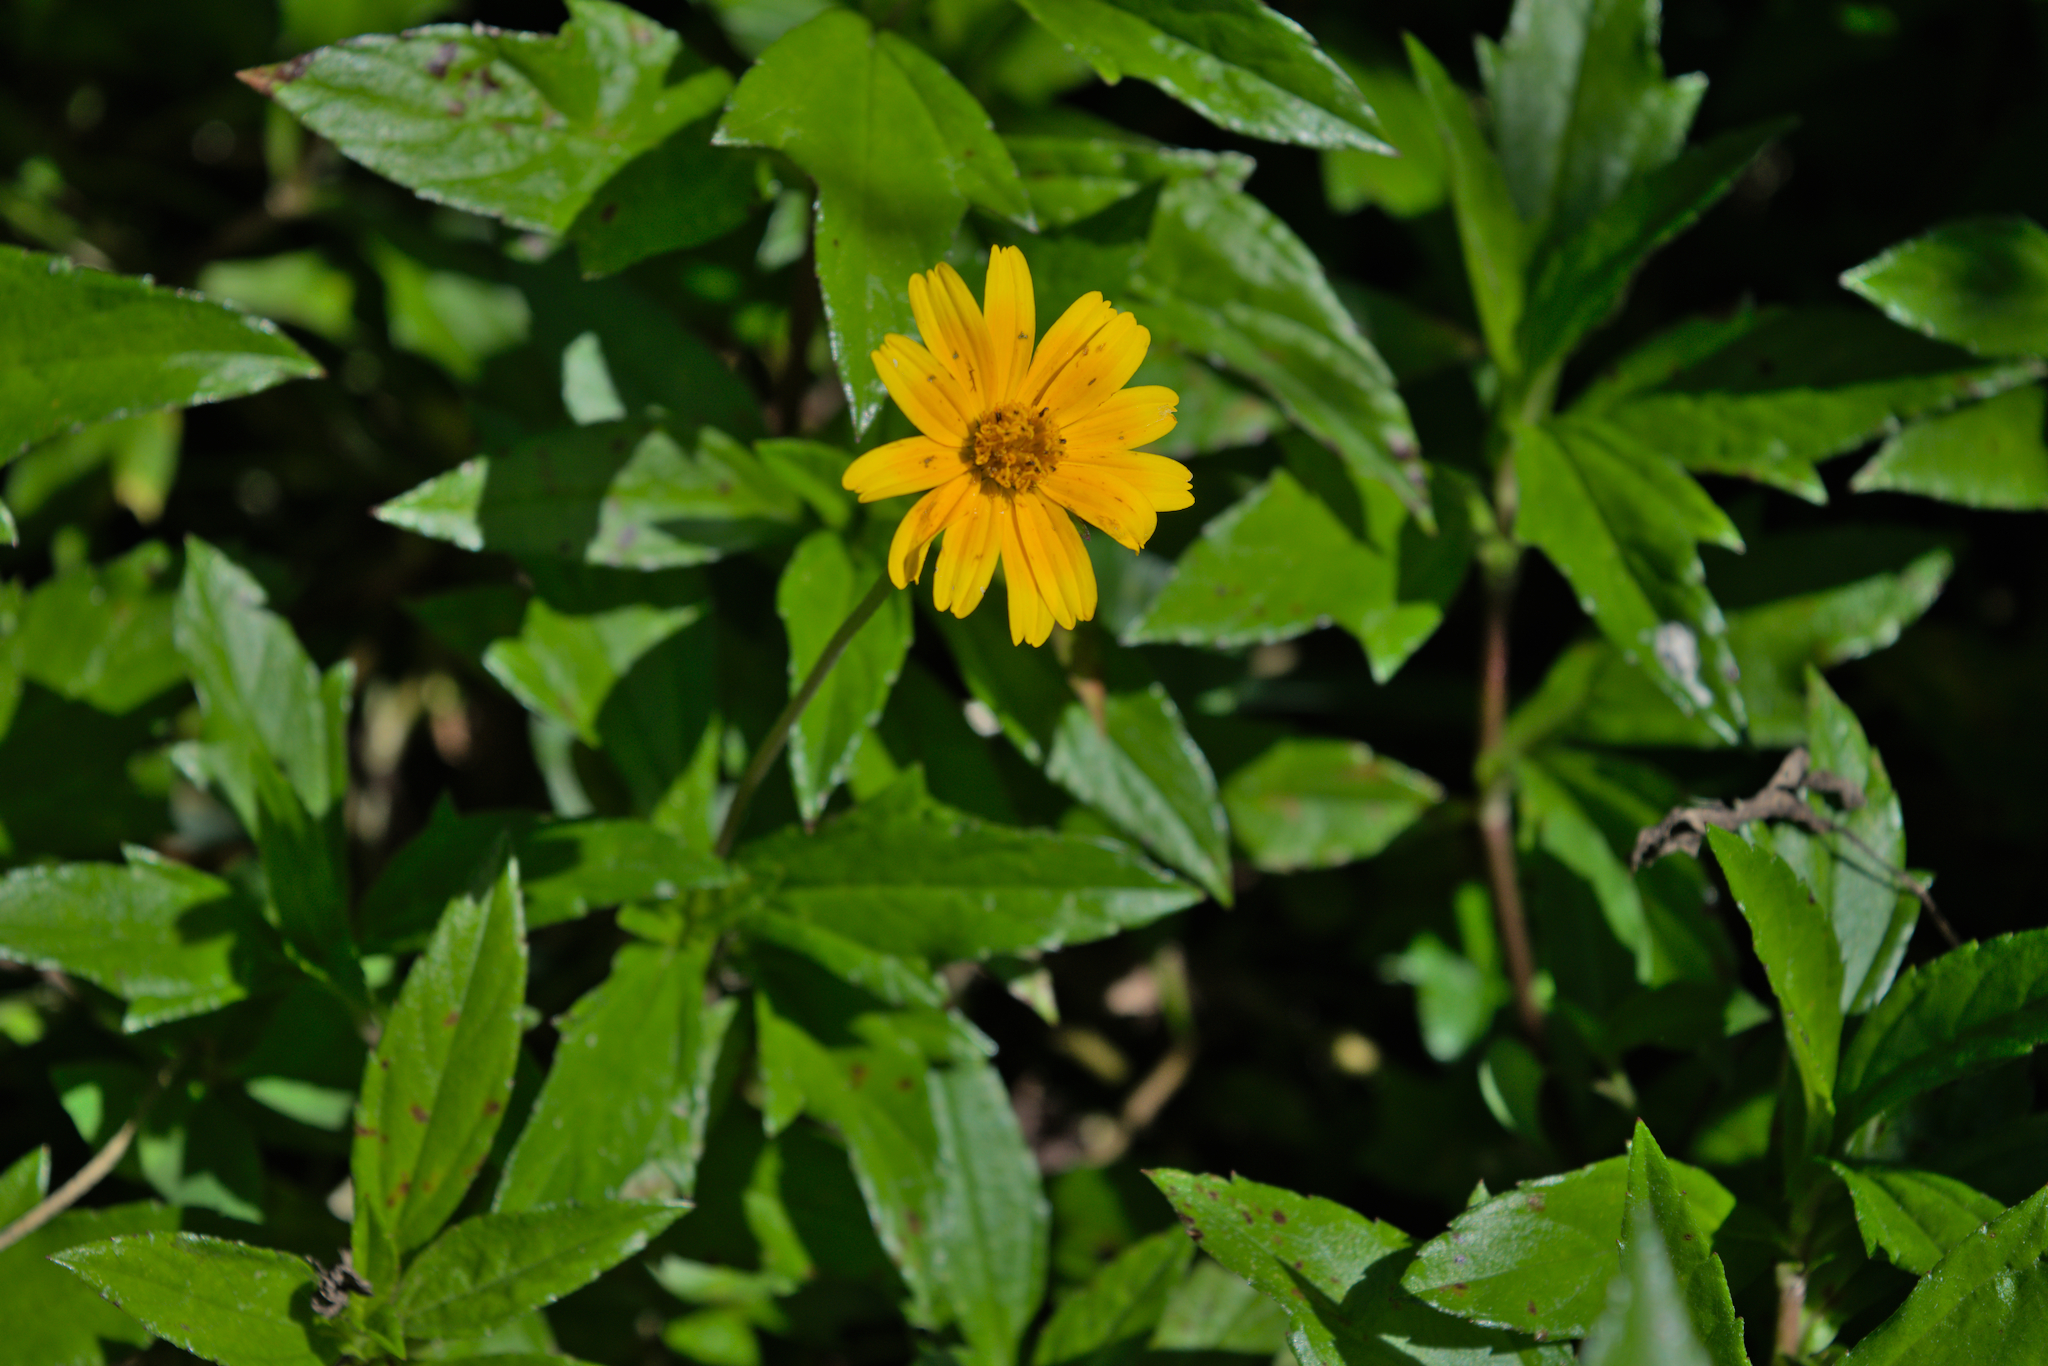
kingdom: Plantae
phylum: Tracheophyta
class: Magnoliopsida
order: Asterales
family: Asteraceae
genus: Sphagneticola
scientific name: Sphagneticola trilobata
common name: Bay biscayne creeping-oxeye
